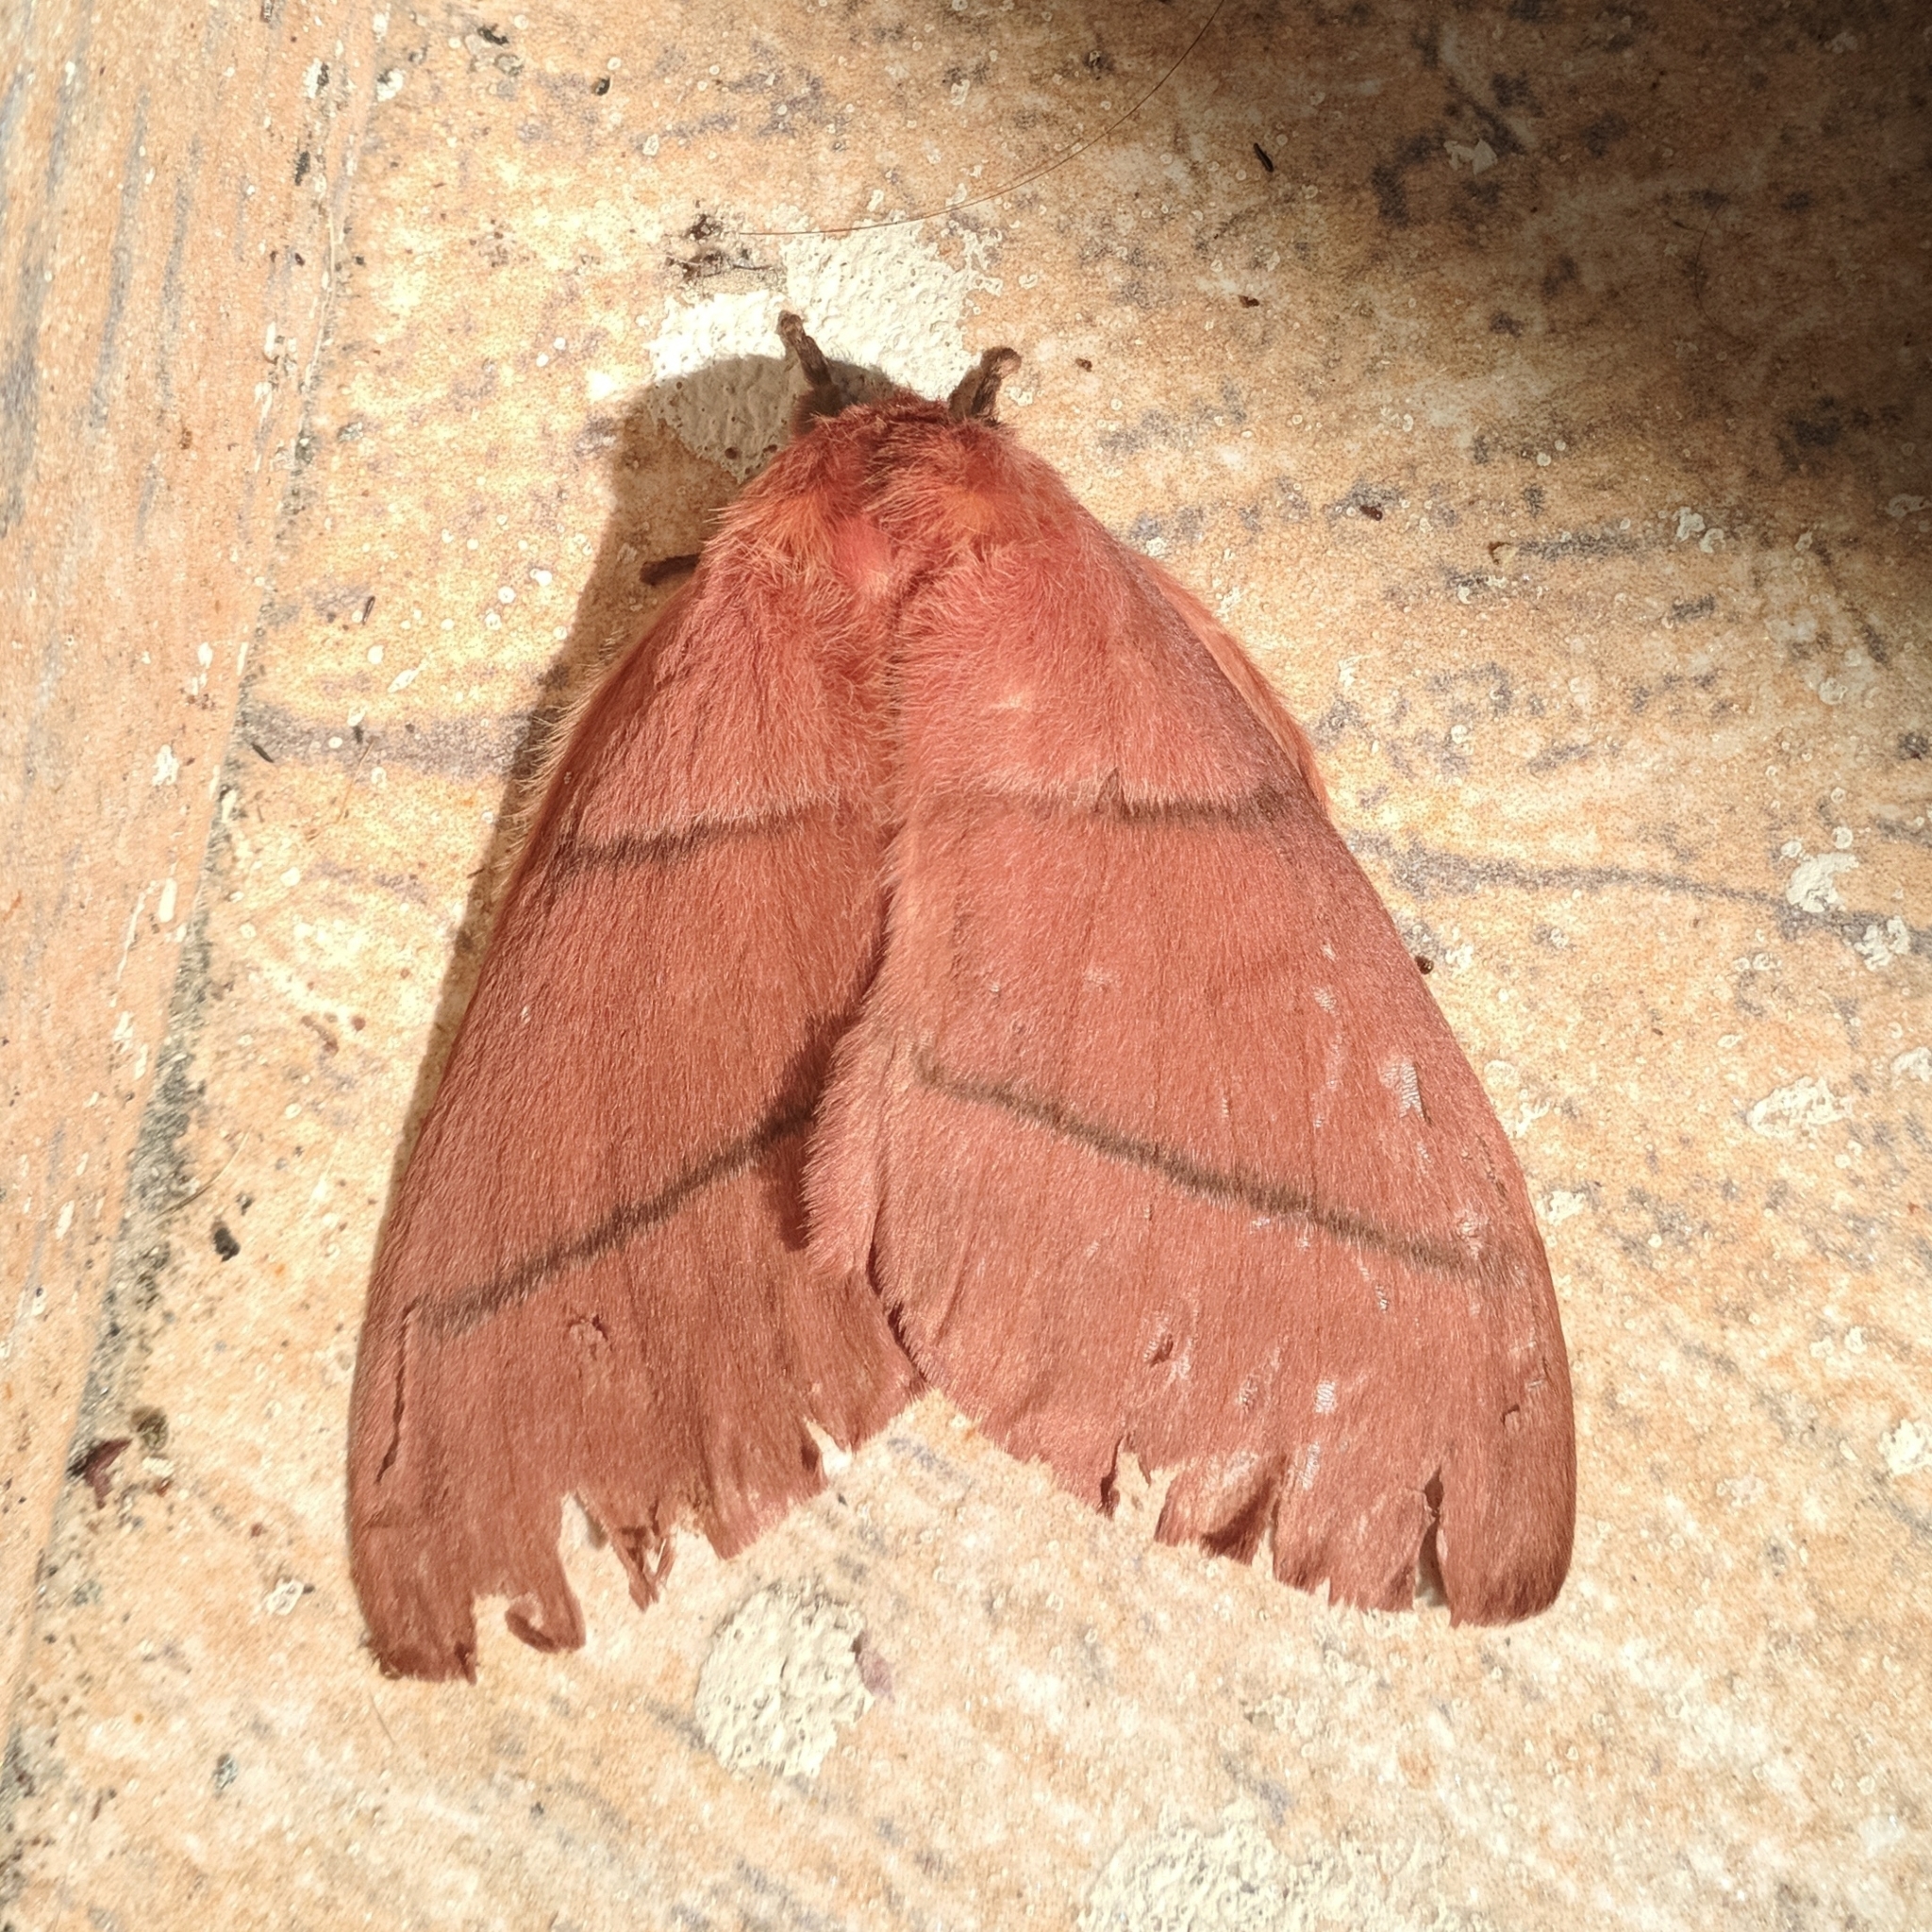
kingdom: Animalia
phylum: Arthropoda
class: Insecta
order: Lepidoptera
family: Saturniidae
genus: Dirphia
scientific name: Dirphia rubricauda
